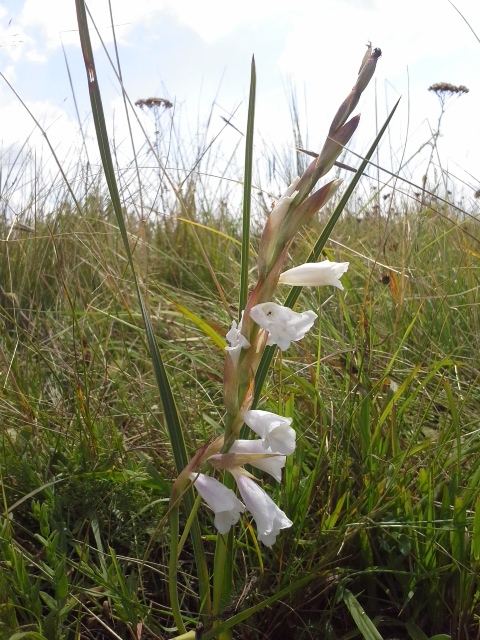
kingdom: Plantae
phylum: Tracheophyta
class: Liliopsida
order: Asparagales
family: Iridaceae
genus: Gladiolus
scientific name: Gladiolus calcaratus
